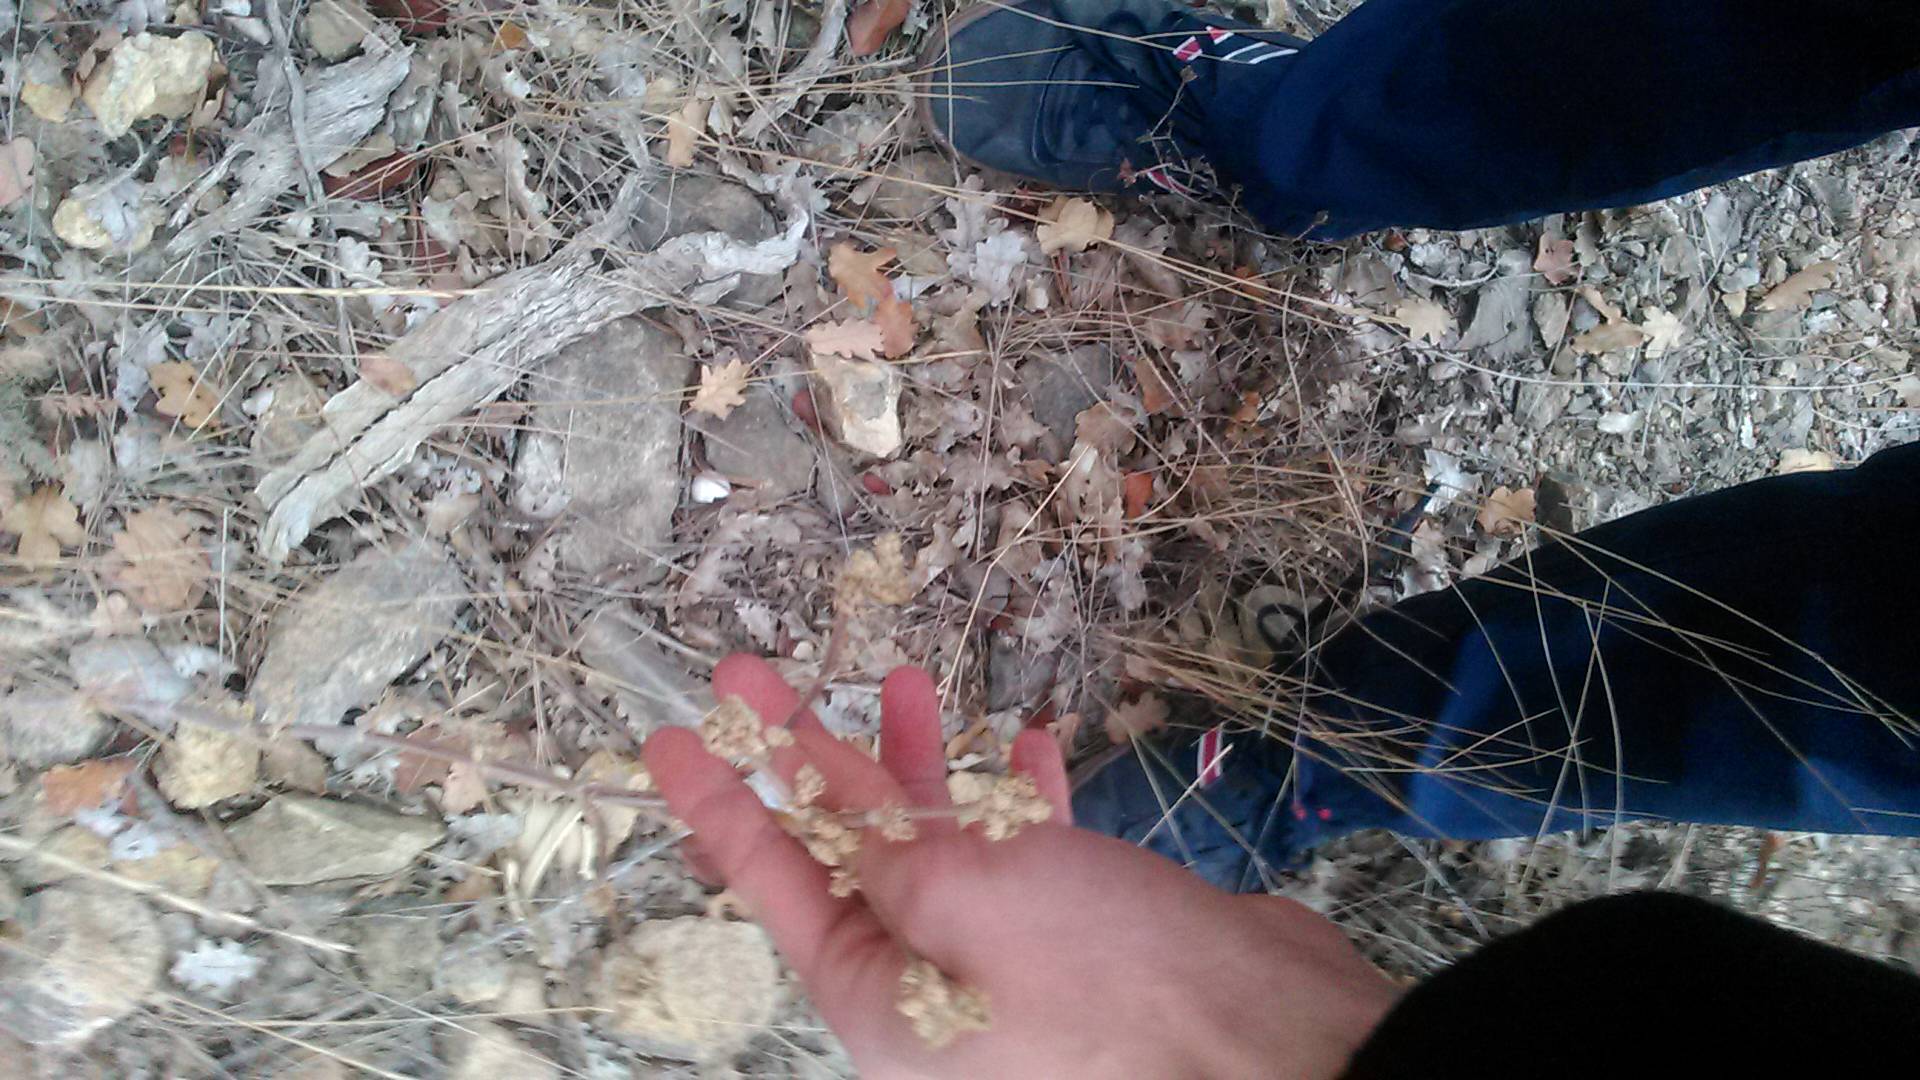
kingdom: Plantae
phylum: Tracheophyta
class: Magnoliopsida
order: Apiales
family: Apiaceae
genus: Seseli
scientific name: Seseli dichotomum
